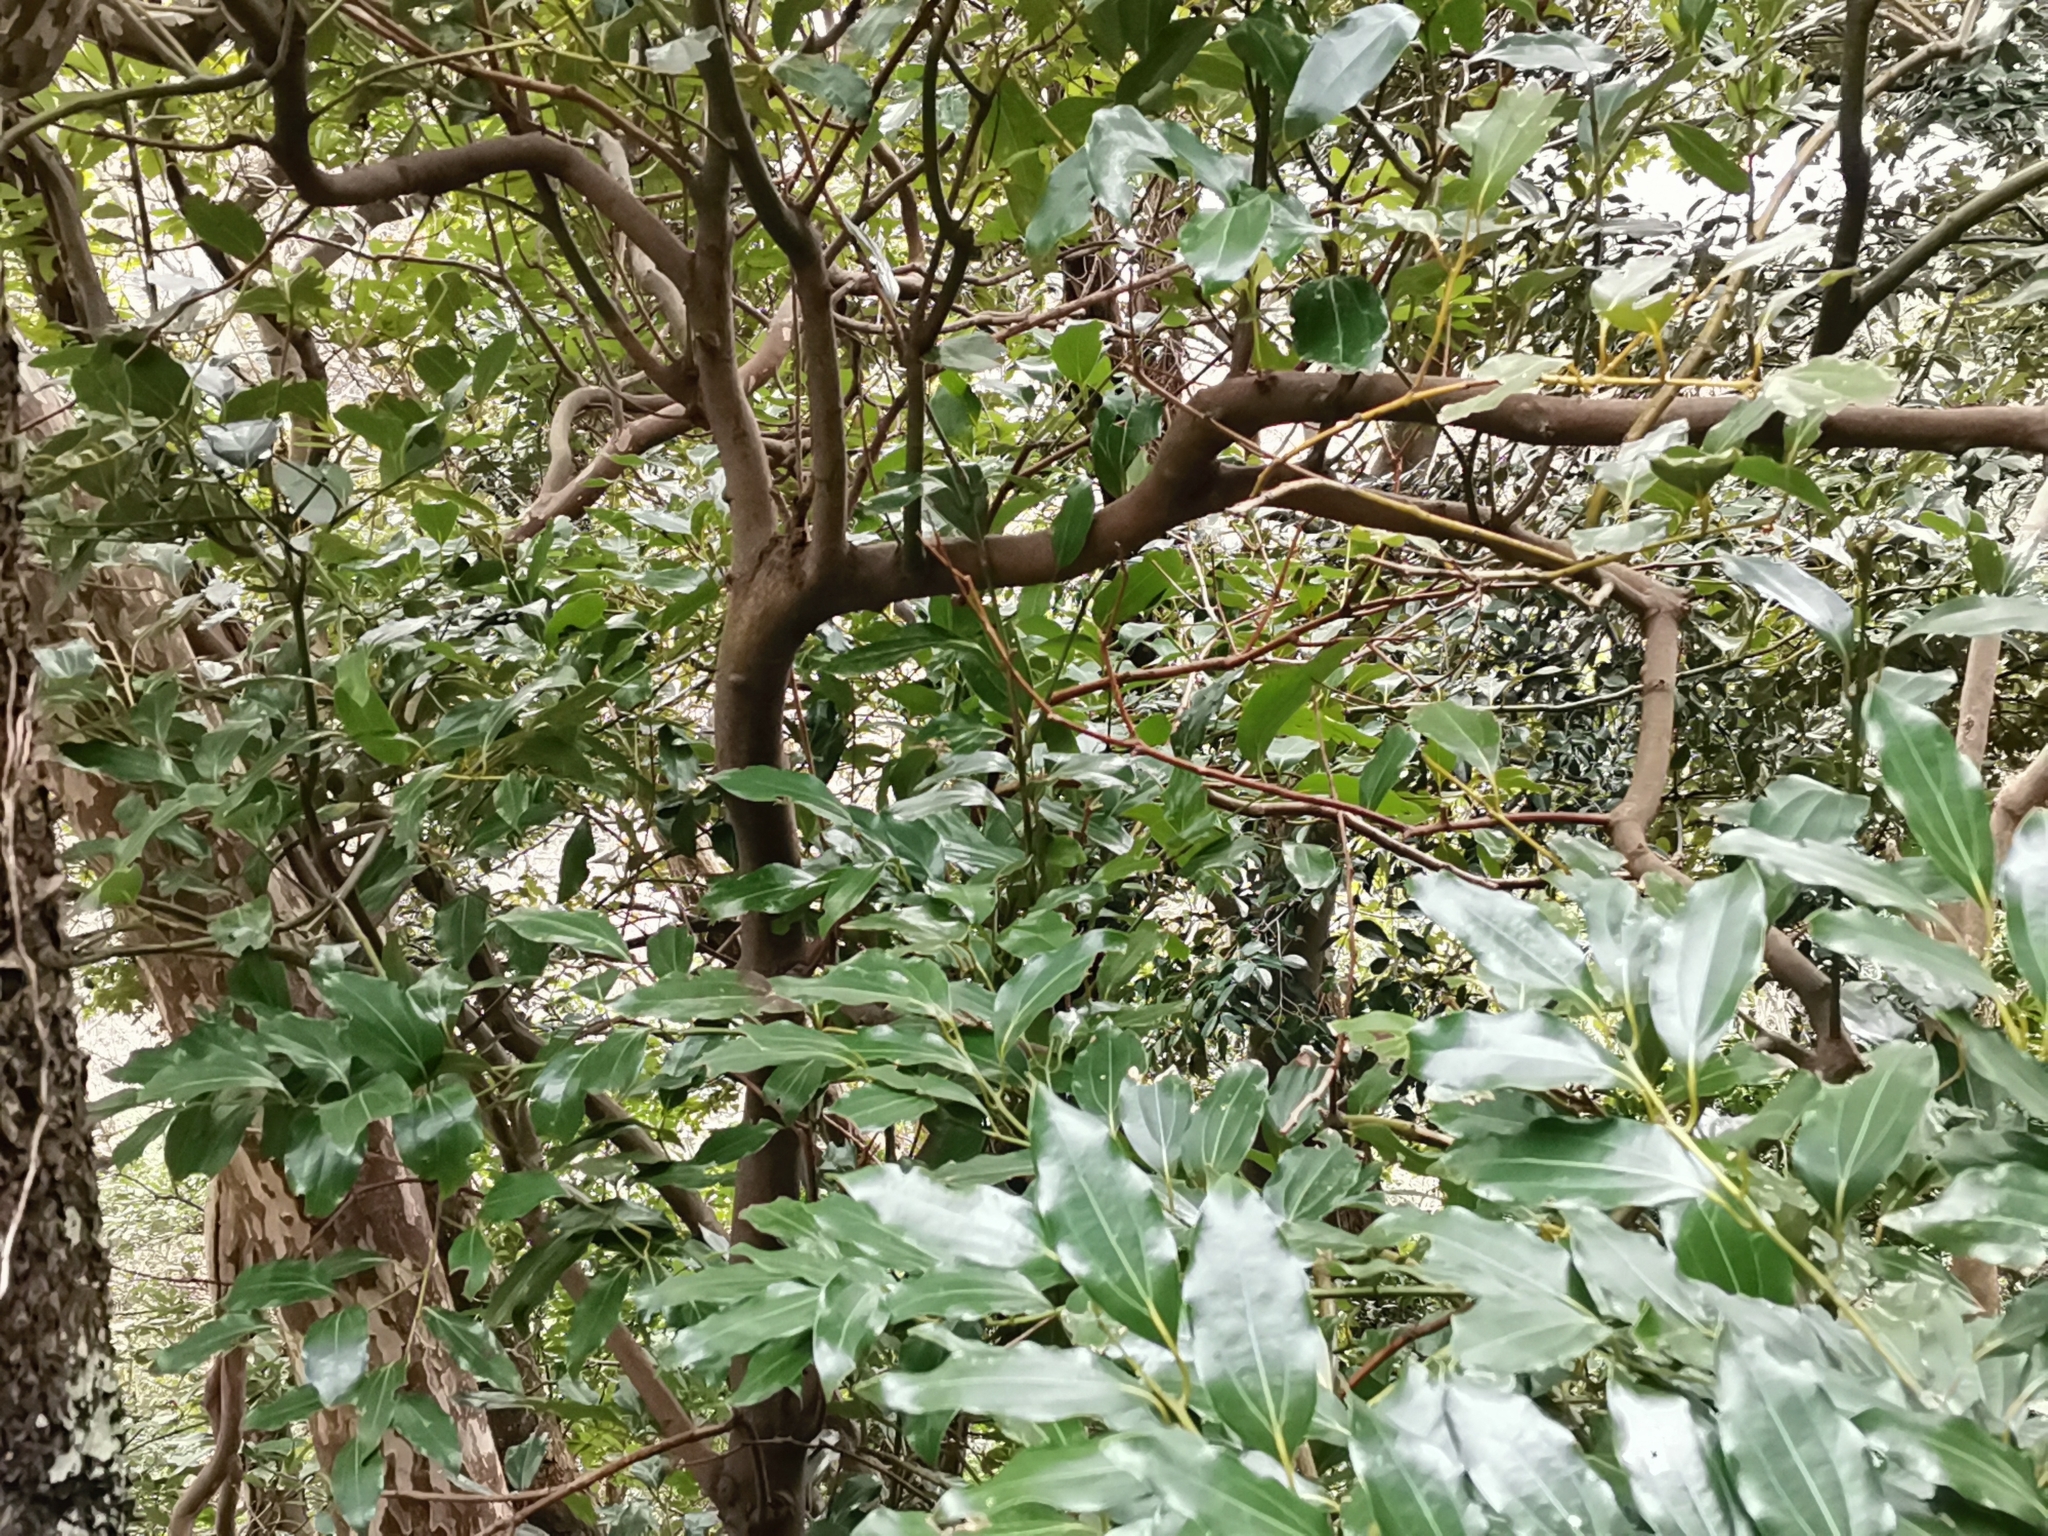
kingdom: Plantae
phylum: Tracheophyta
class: Magnoliopsida
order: Laurales
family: Lauraceae
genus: Cinnamomum
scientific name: Cinnamomum chekiangense
